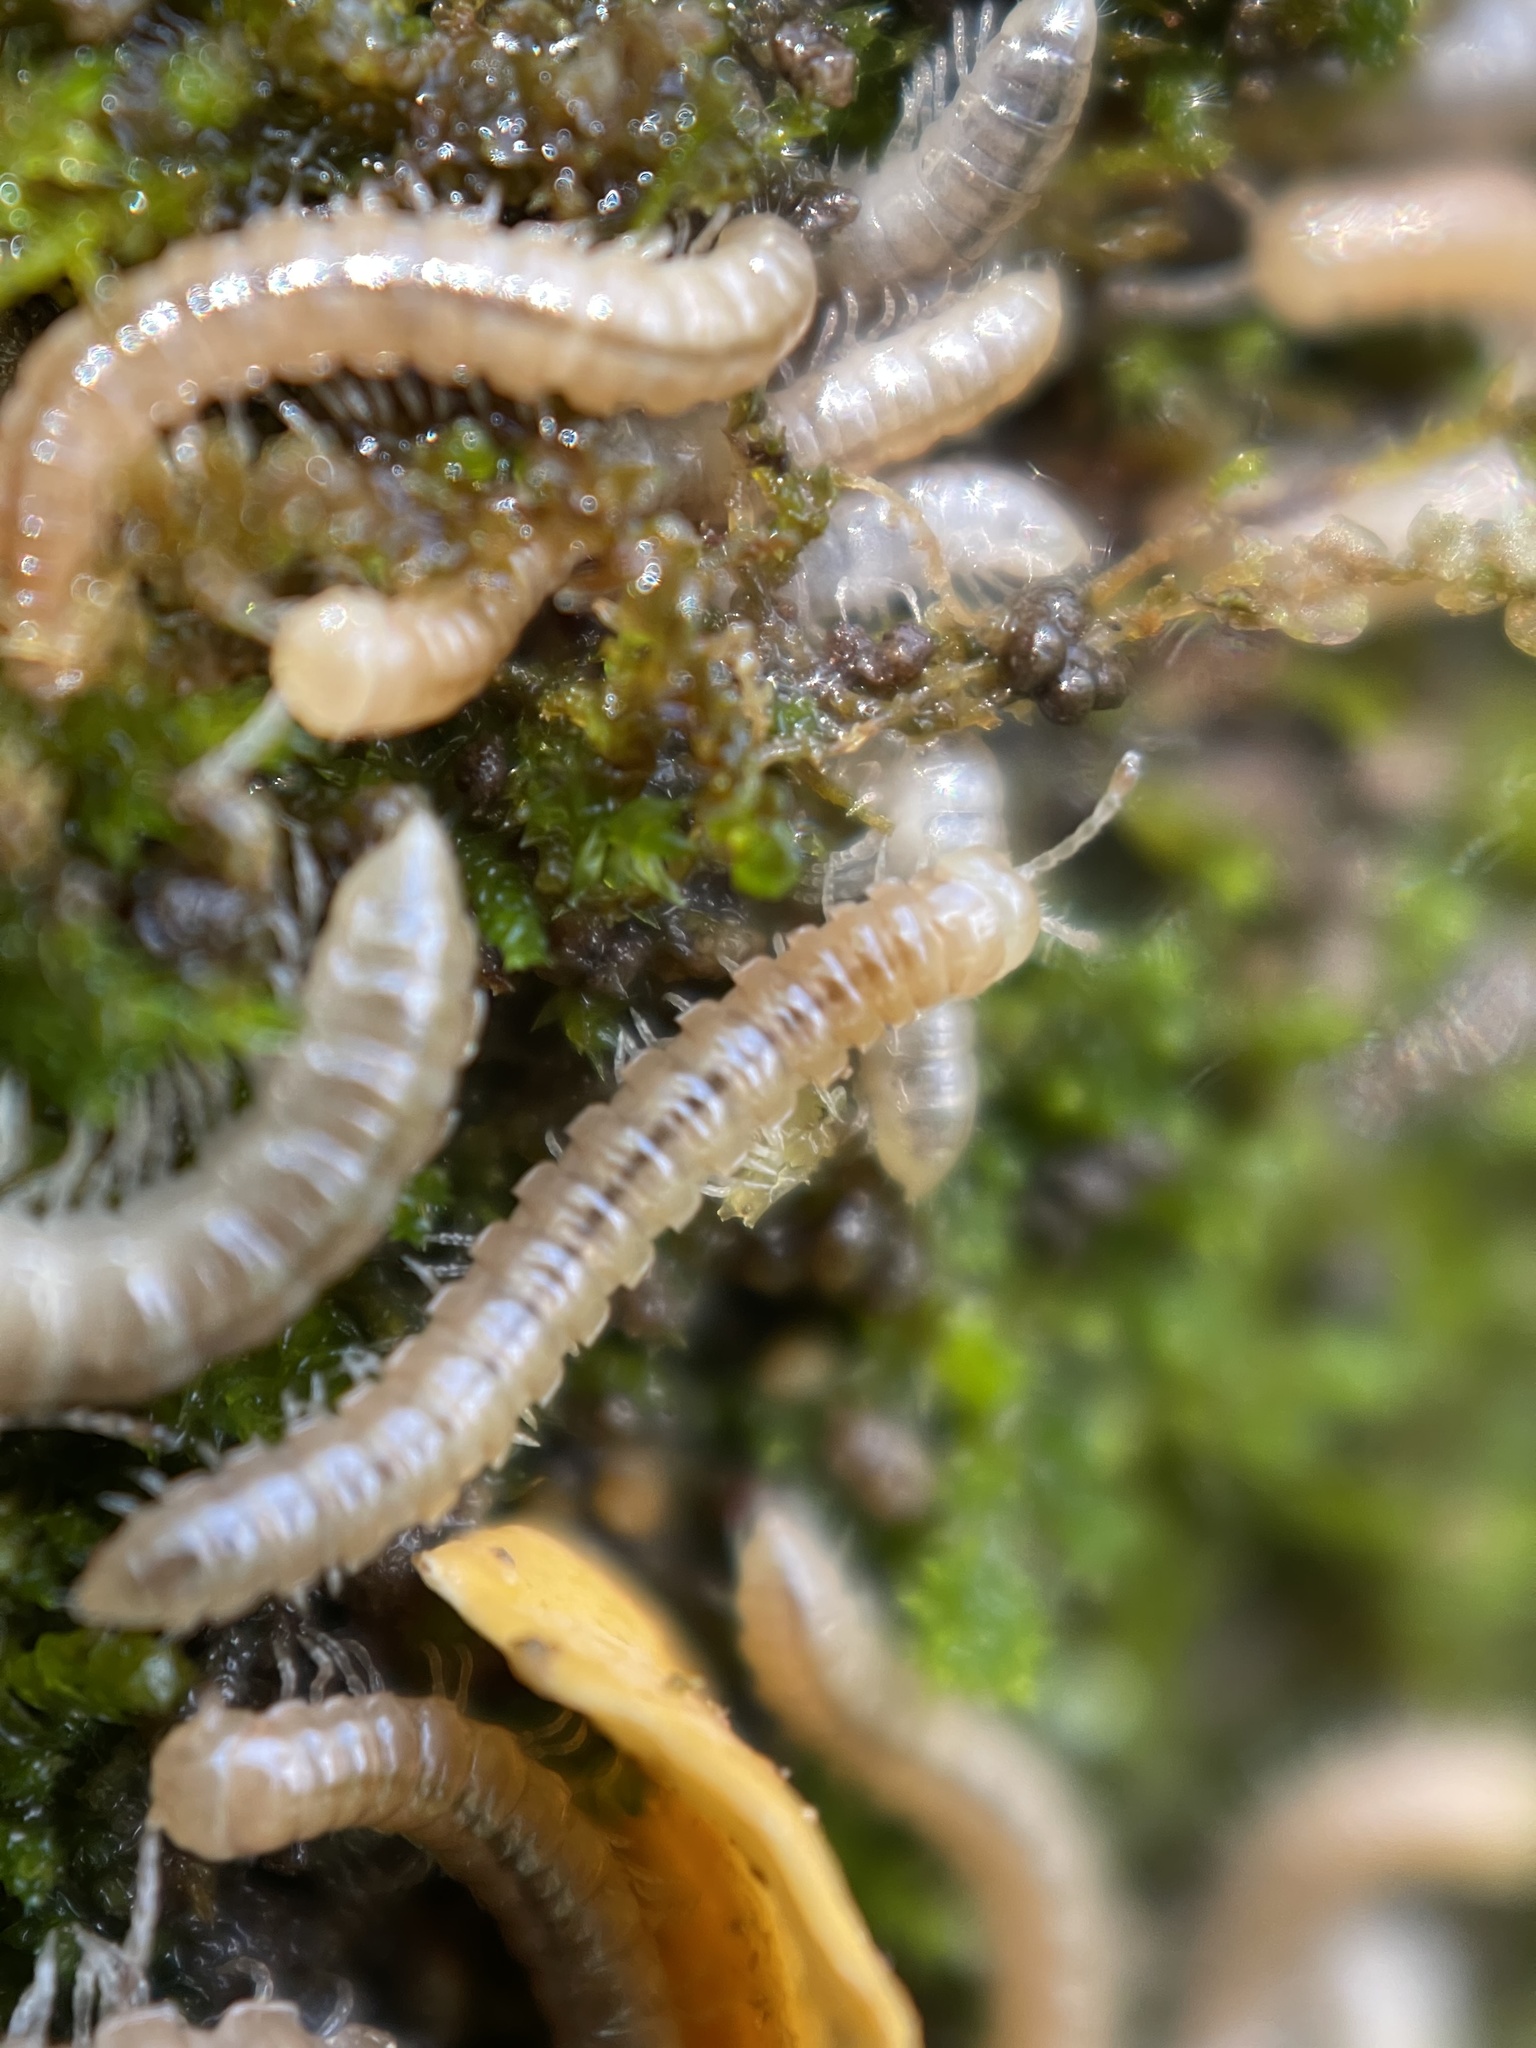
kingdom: Animalia
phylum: Arthropoda
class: Diplopoda
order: Polydesmida
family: Paradoxosomatidae
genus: Oxidus
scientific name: Oxidus gracilis
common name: Greenhouse millipede
